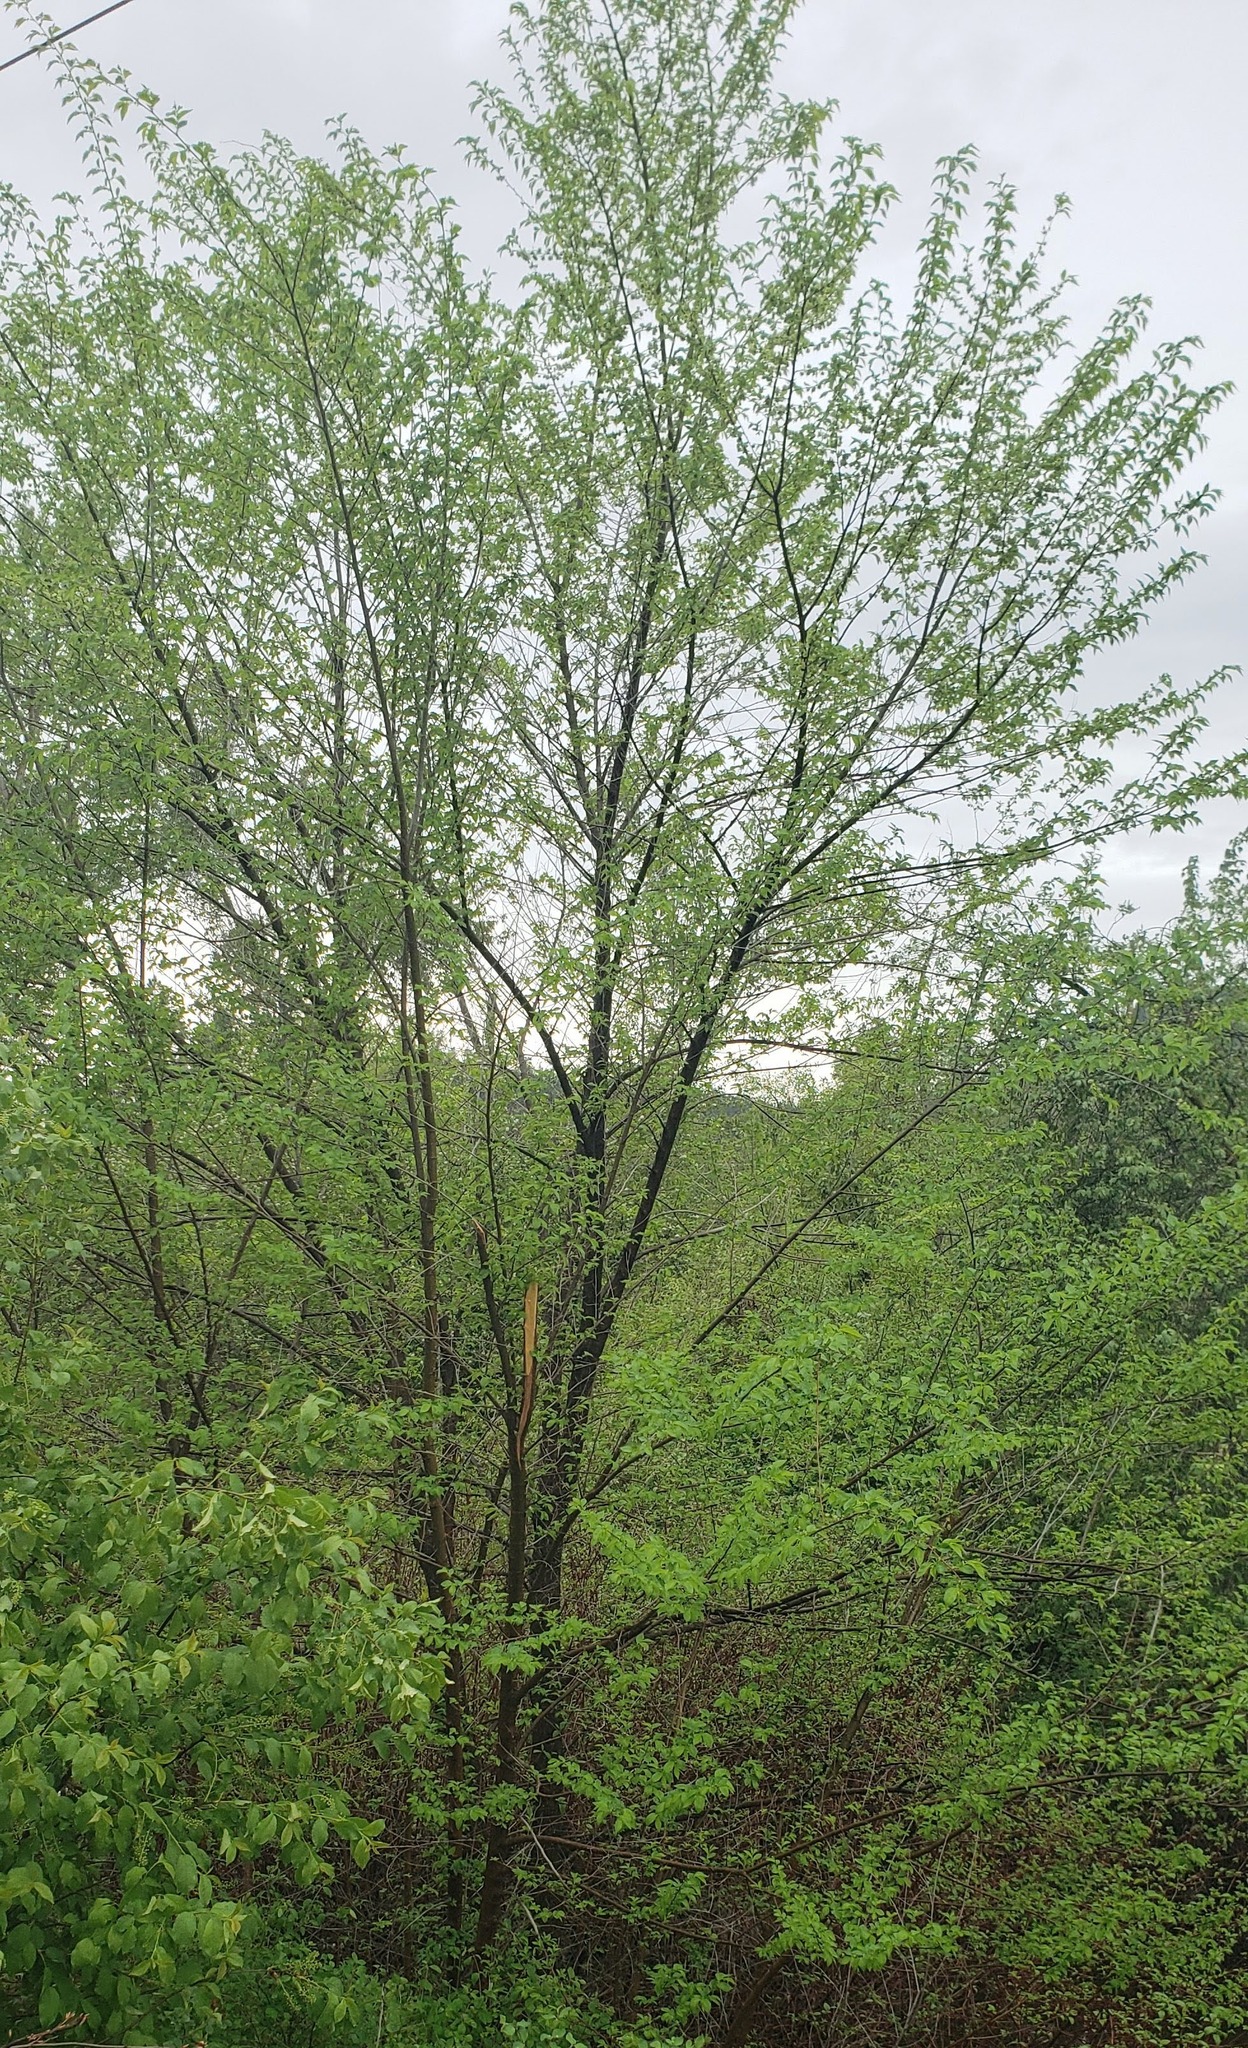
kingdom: Plantae
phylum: Tracheophyta
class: Magnoliopsida
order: Rosales
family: Ulmaceae
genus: Ulmus
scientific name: Ulmus pumila
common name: Siberian elm
